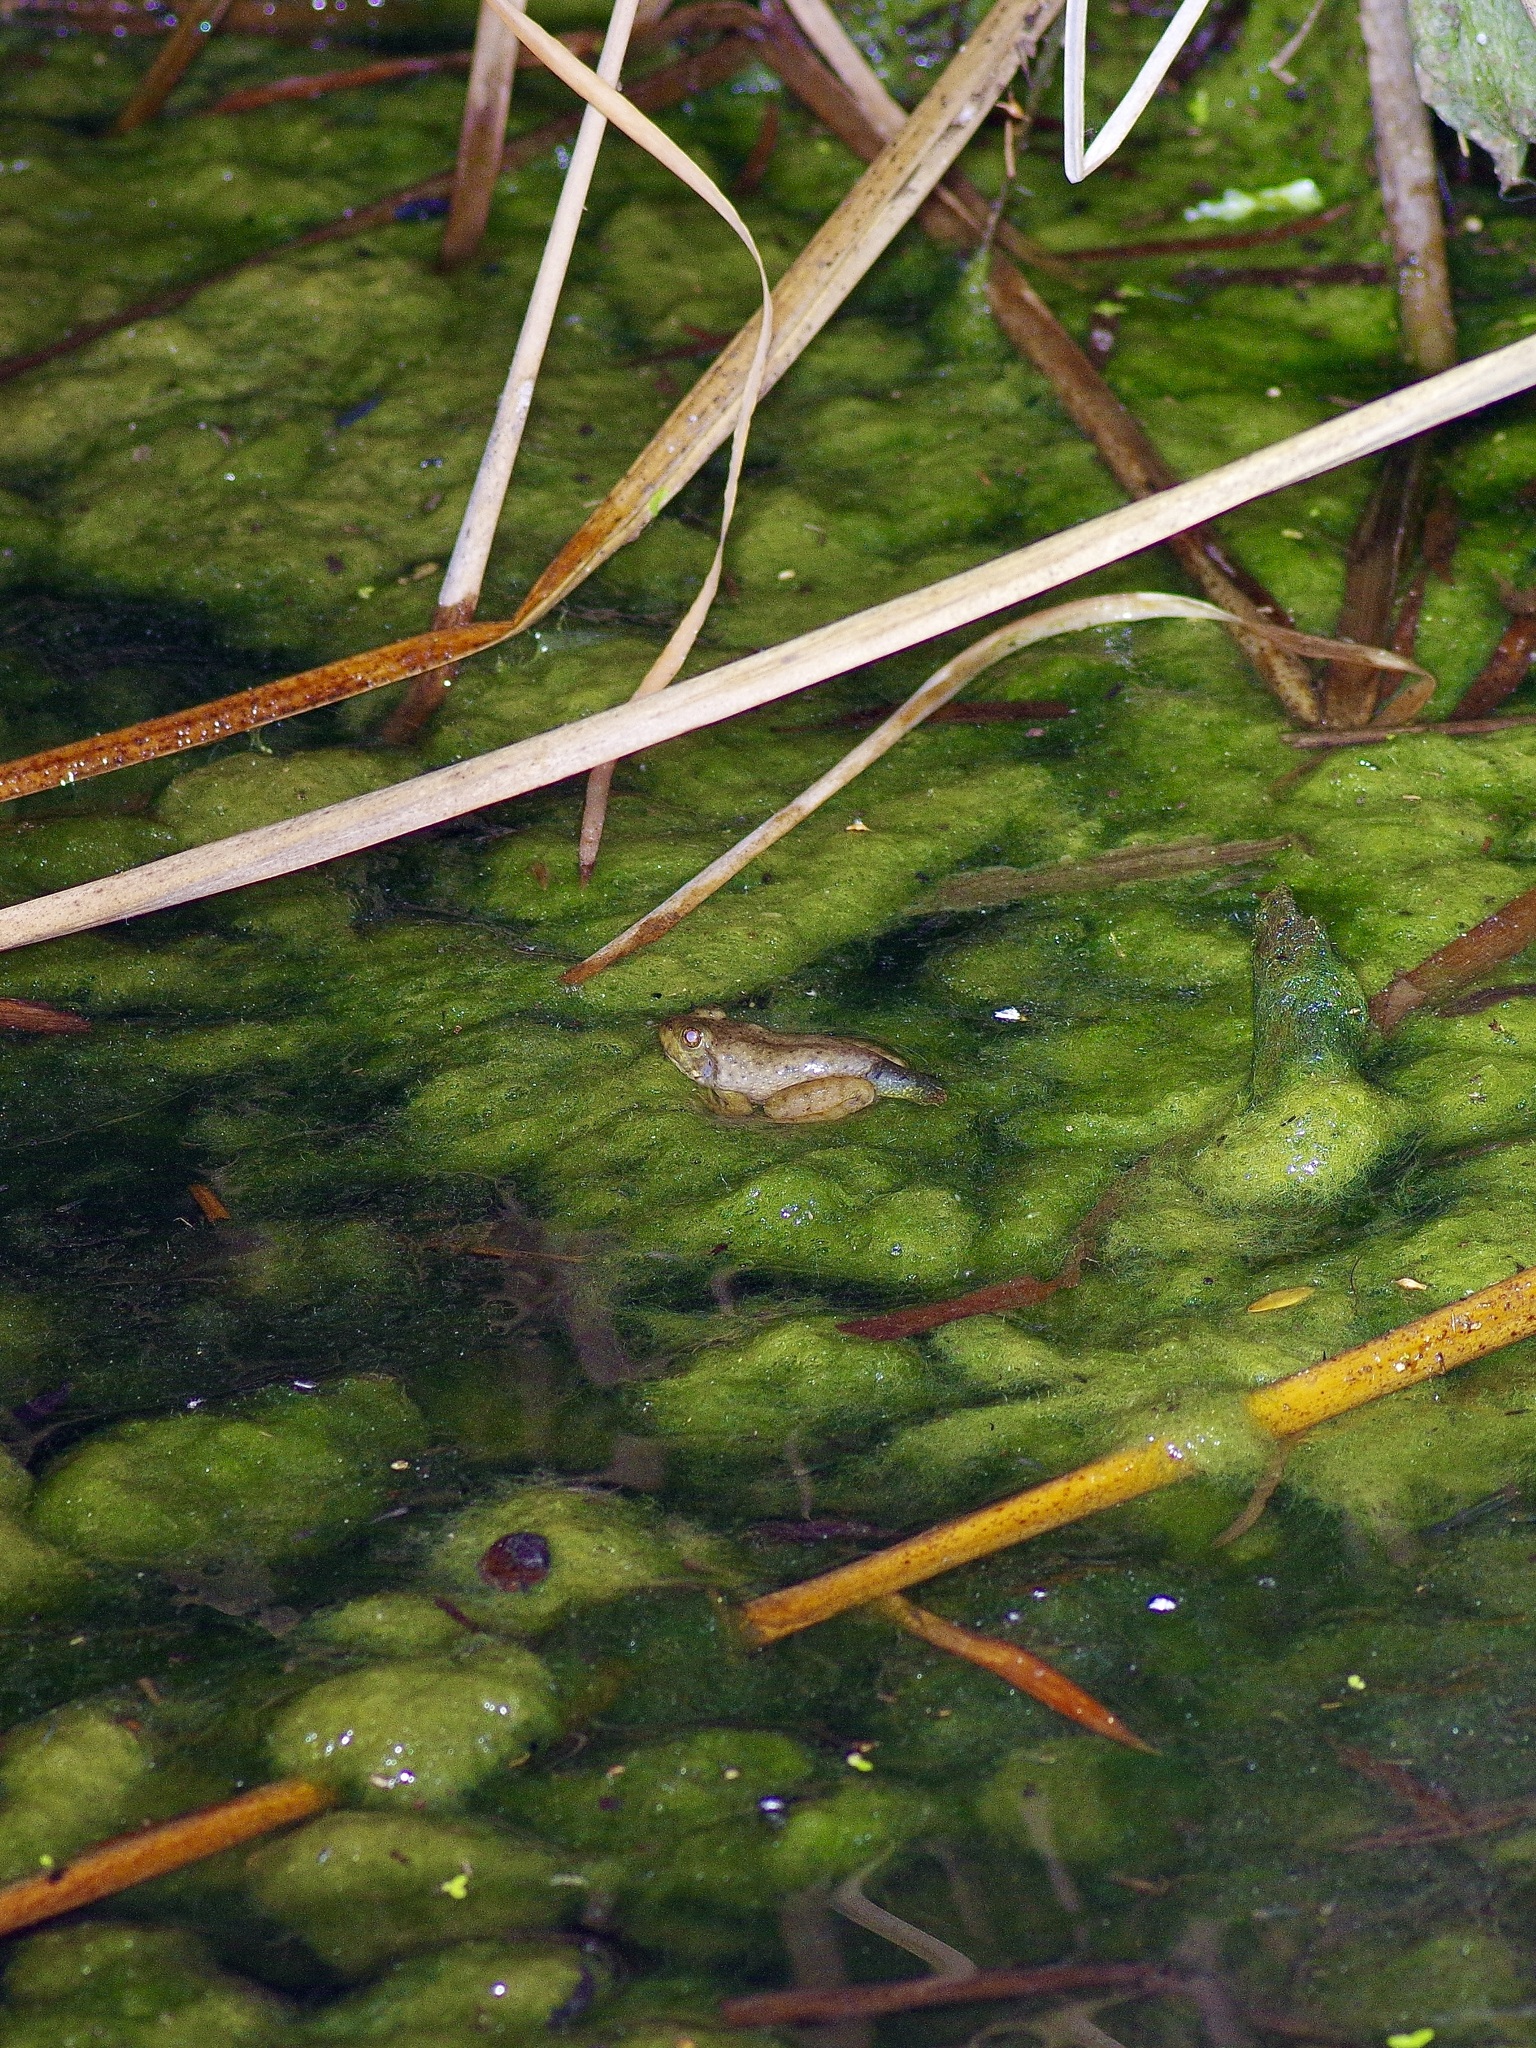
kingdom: Animalia
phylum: Chordata
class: Amphibia
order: Anura
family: Ranidae
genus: Lithobates
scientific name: Lithobates catesbeianus
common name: American bullfrog
